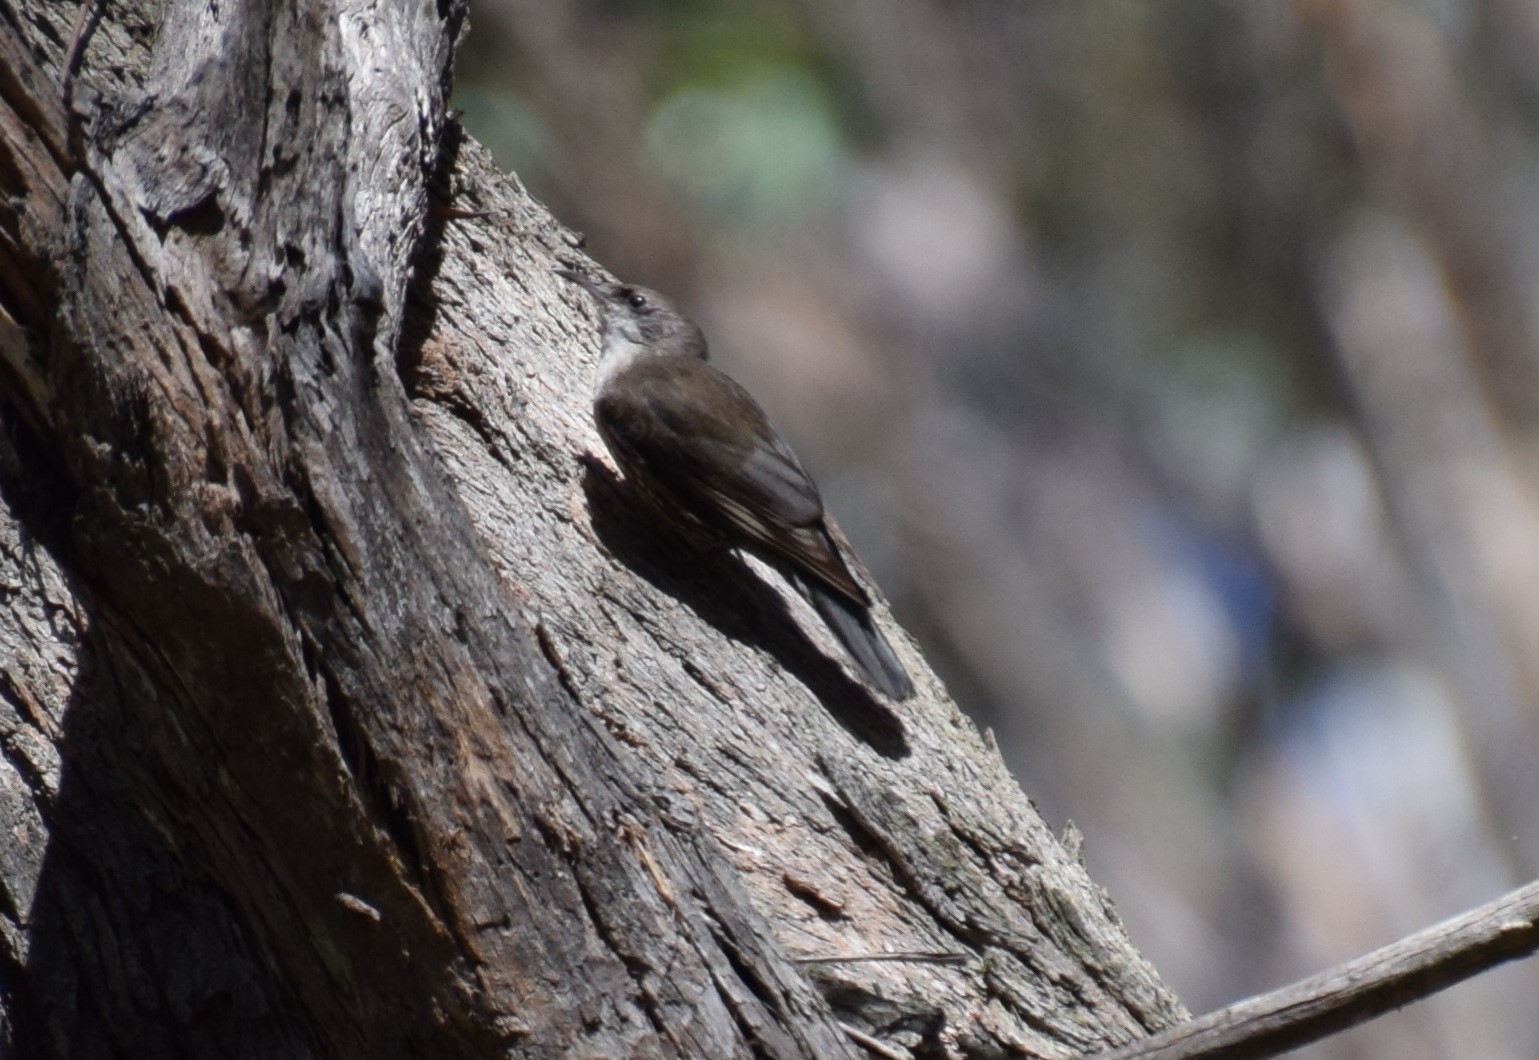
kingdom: Animalia
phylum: Chordata
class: Aves
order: Passeriformes
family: Climacteridae
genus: Cormobates
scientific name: Cormobates leucophaea
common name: White-throated treecreeper
